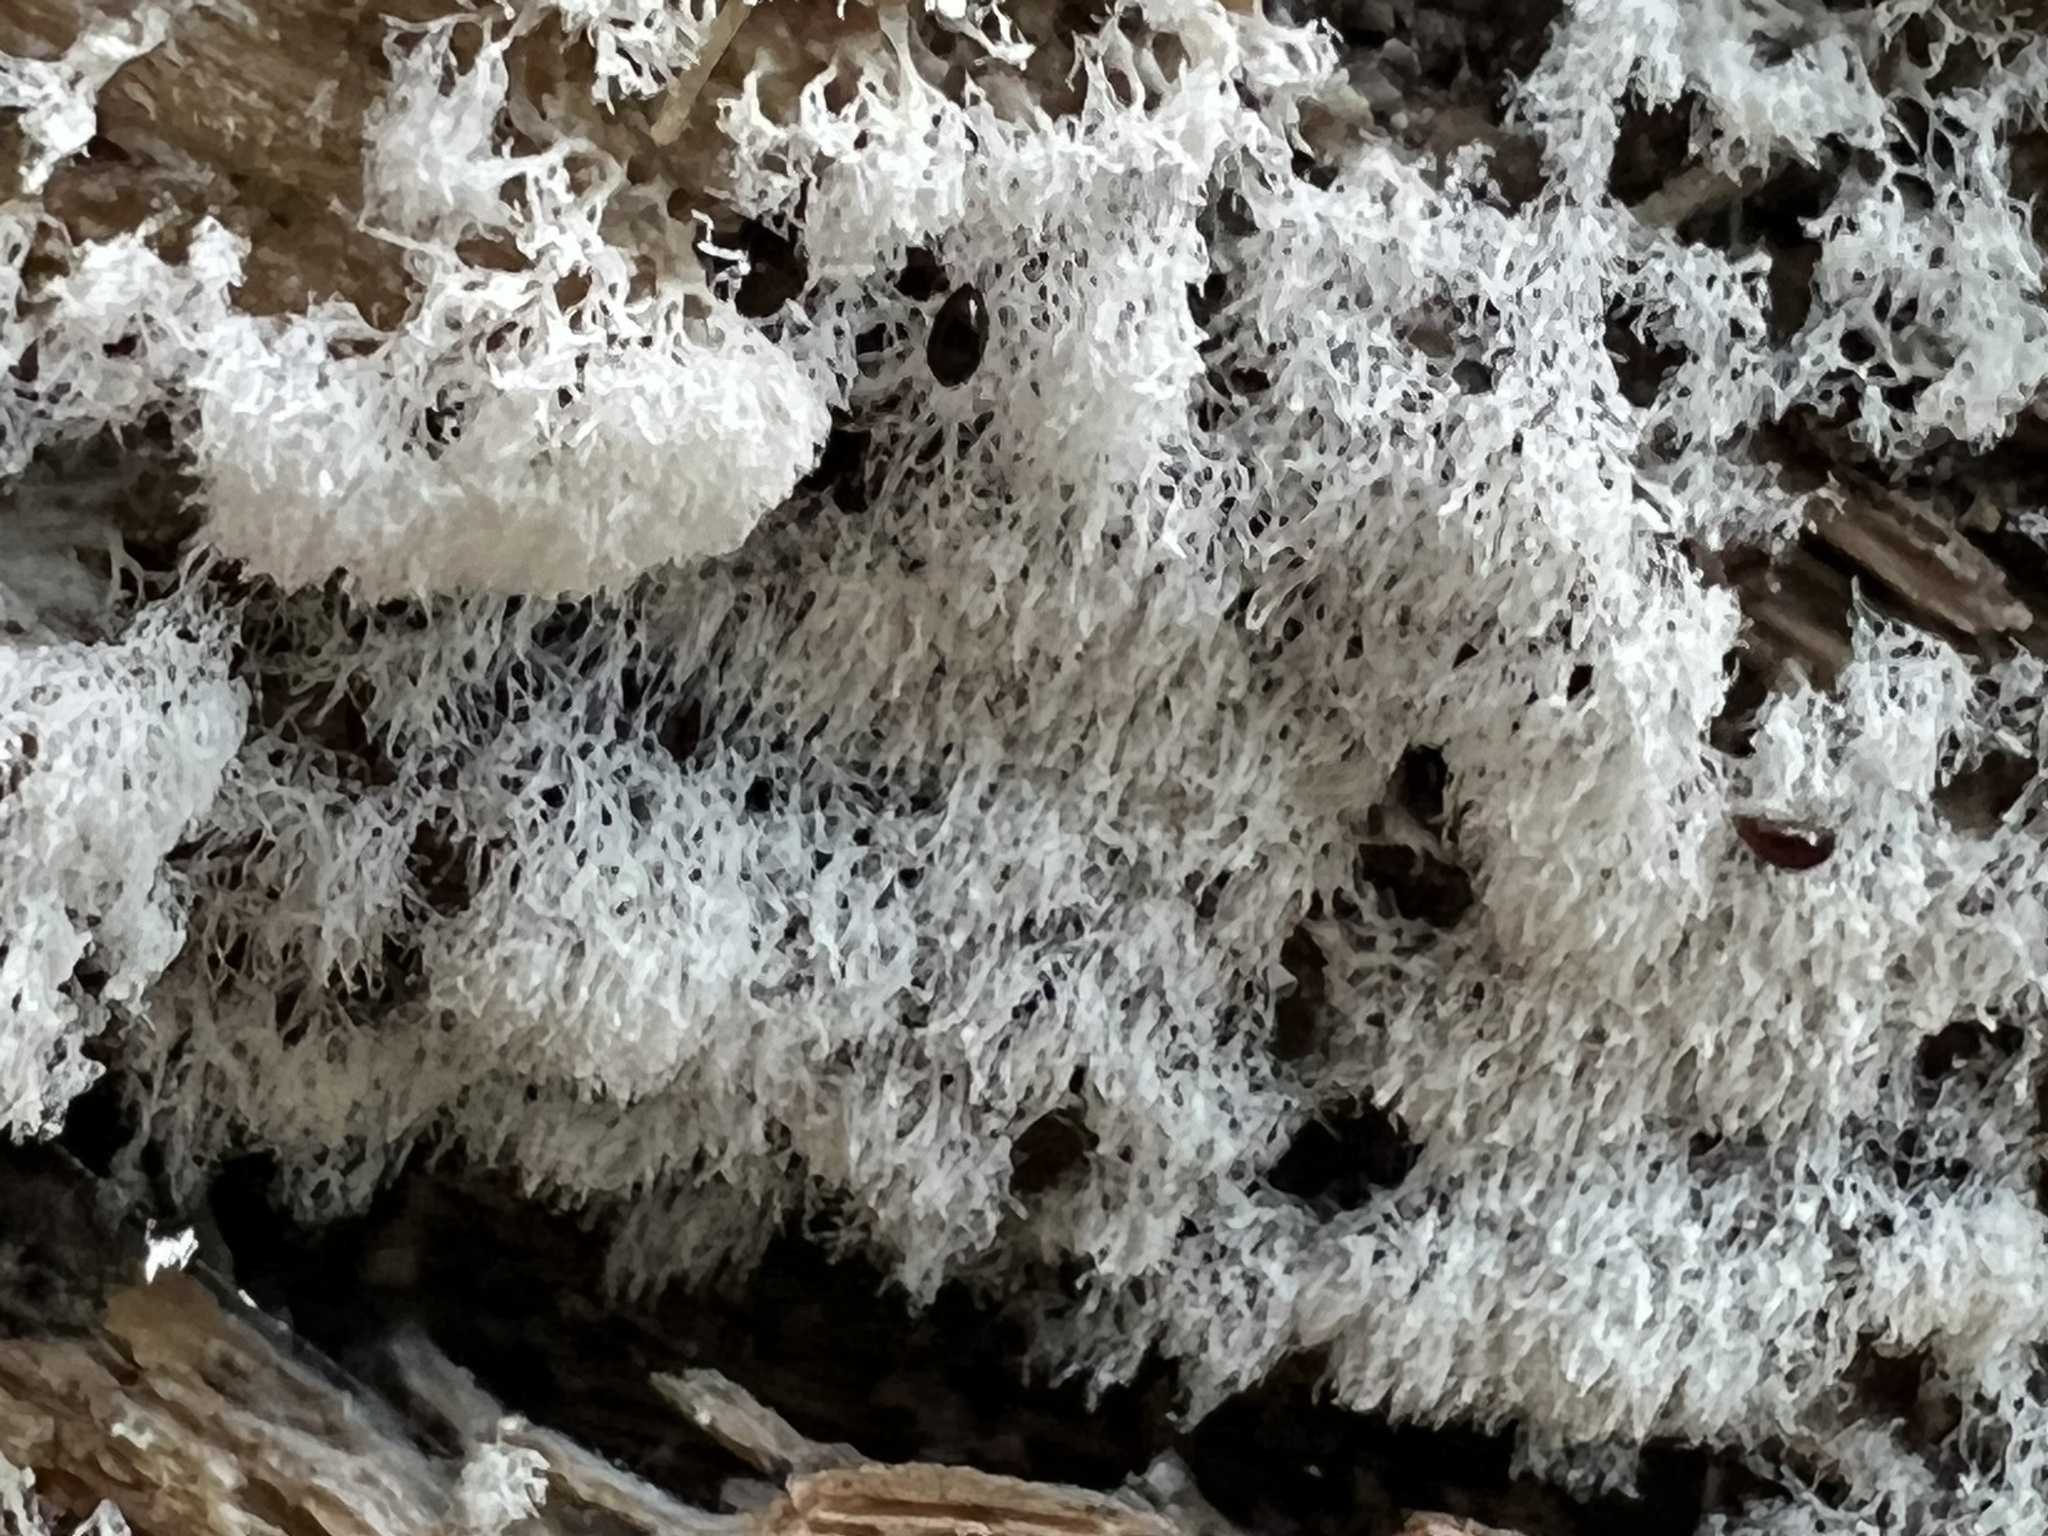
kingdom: Protozoa
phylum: Mycetozoa
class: Protosteliomycetes
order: Ceratiomyxales
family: Ceratiomyxaceae
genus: Ceratiomyxa
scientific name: Ceratiomyxa fruticulosa
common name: Honeycomb coral slime mold
